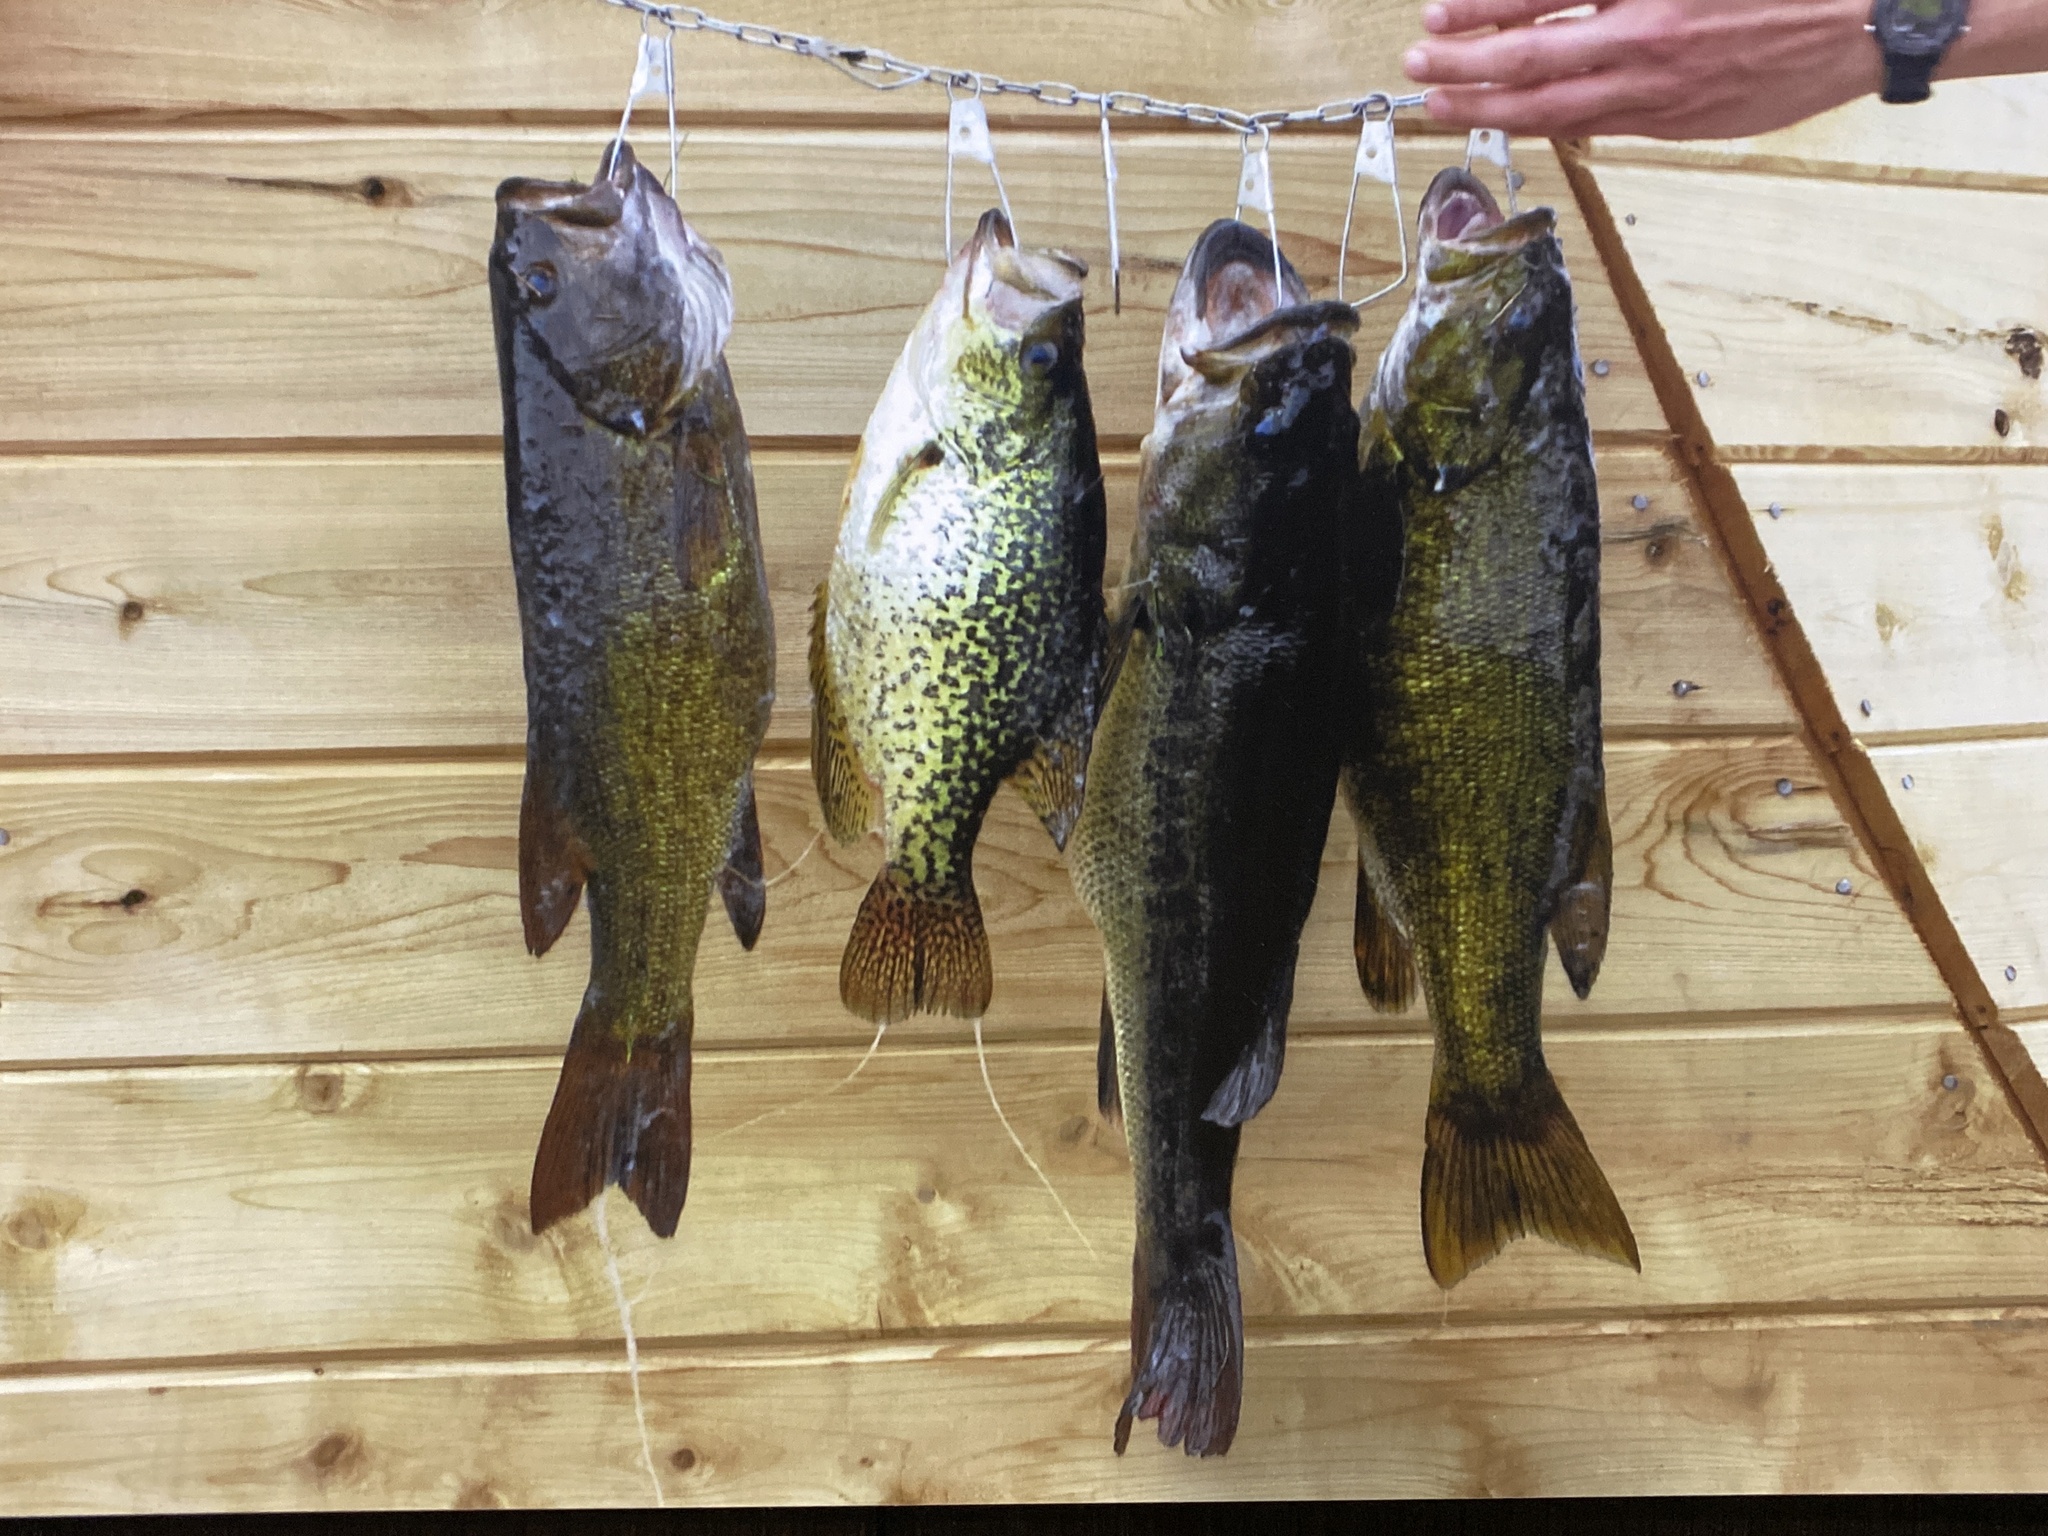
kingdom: Animalia
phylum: Chordata
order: Perciformes
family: Centrarchidae
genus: Pomoxis
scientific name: Pomoxis nigromaculatus
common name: Black crappie
